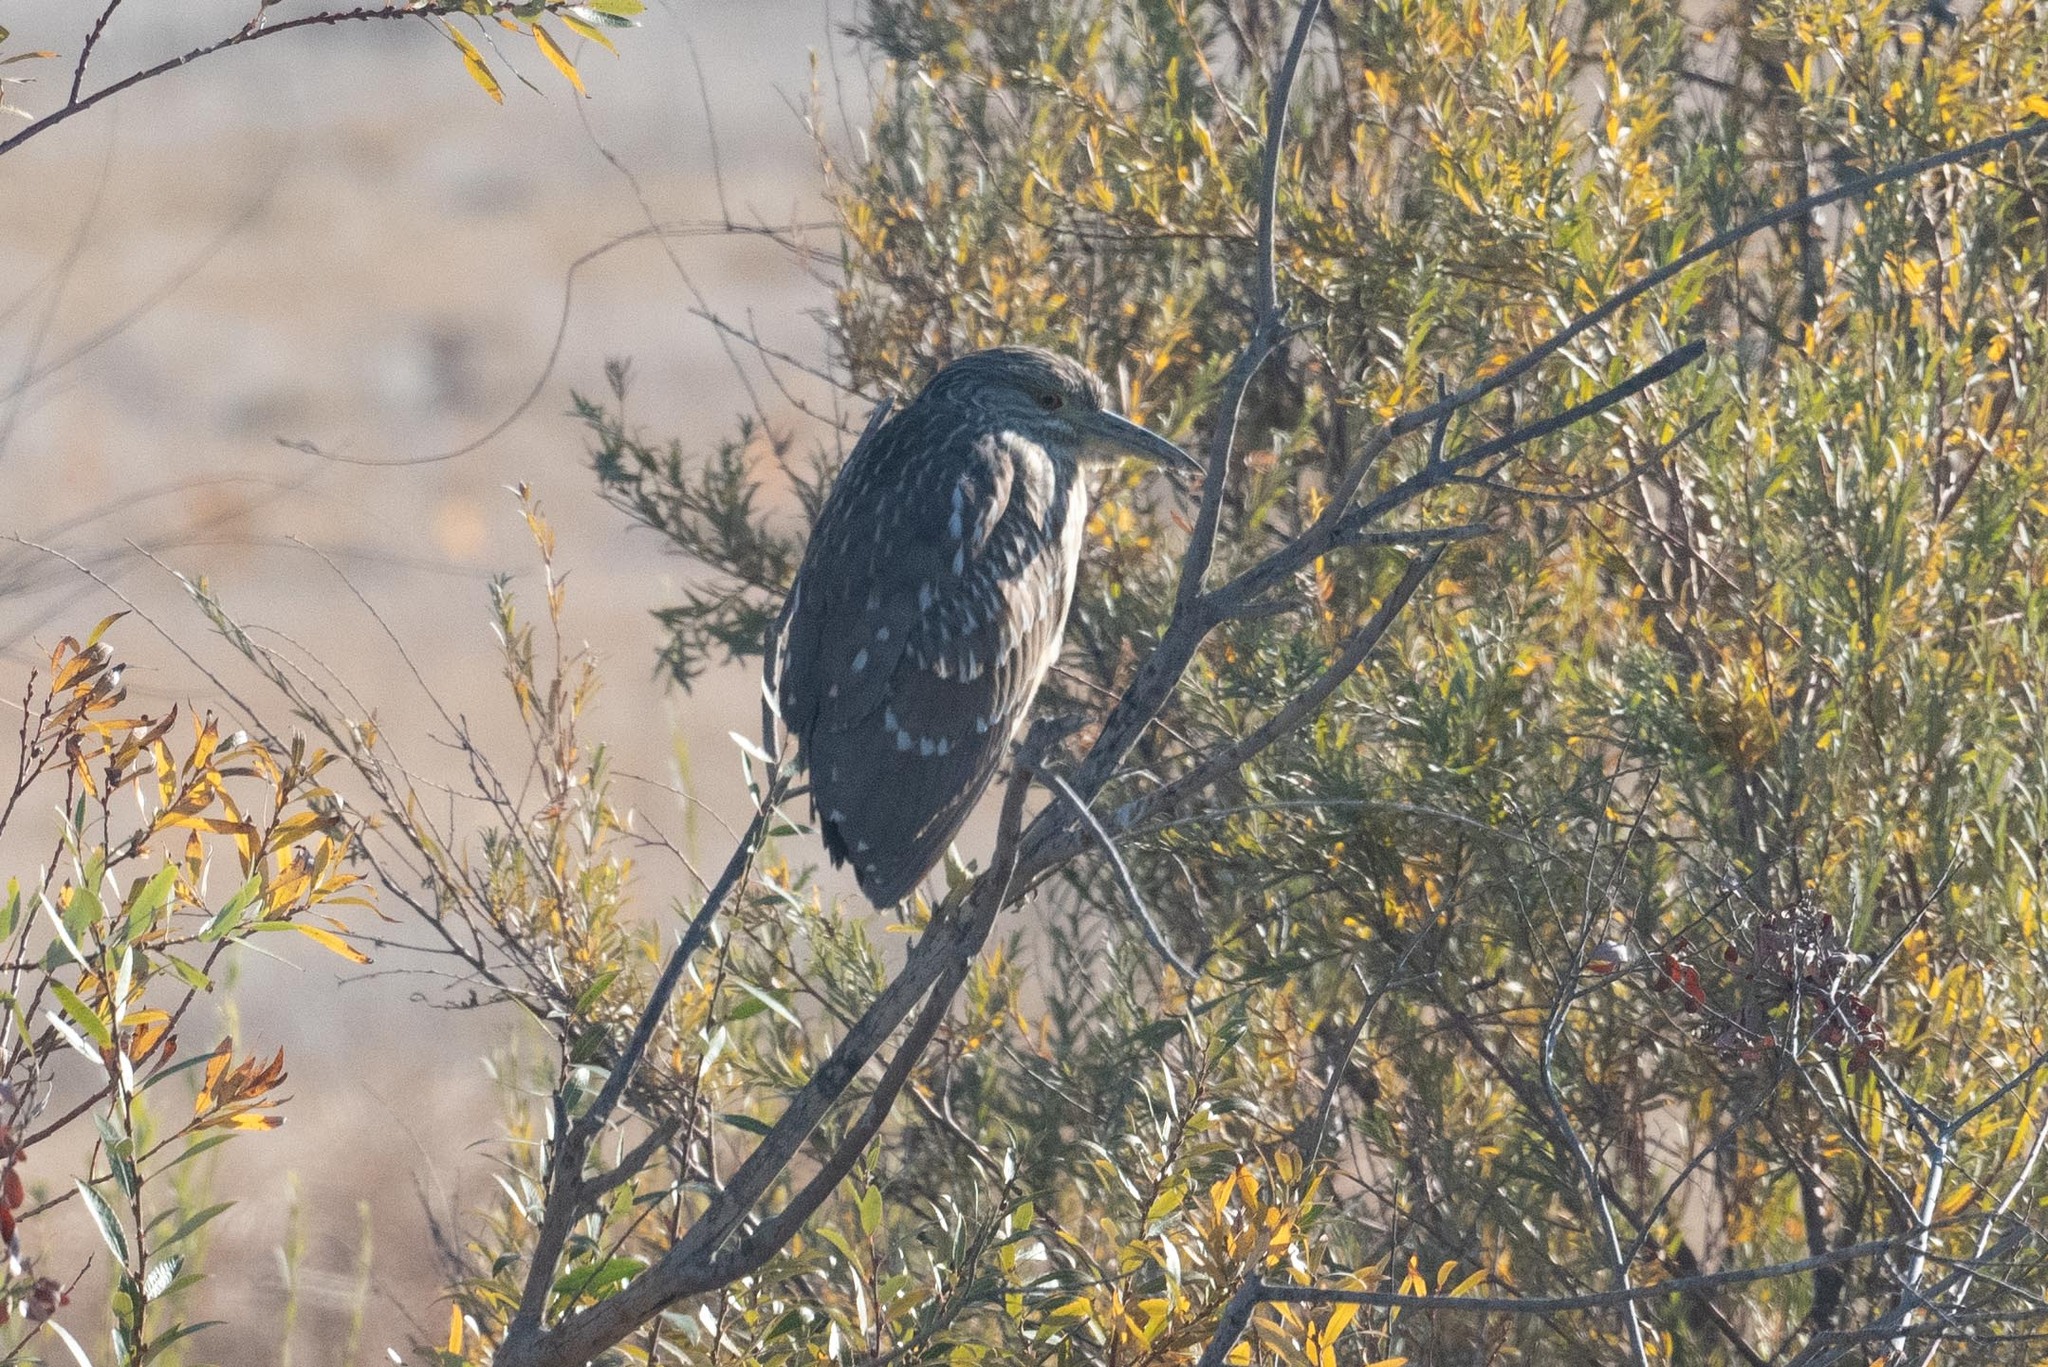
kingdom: Animalia
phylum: Chordata
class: Aves
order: Pelecaniformes
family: Ardeidae
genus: Nycticorax
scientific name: Nycticorax nycticorax
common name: Black-crowned night heron
